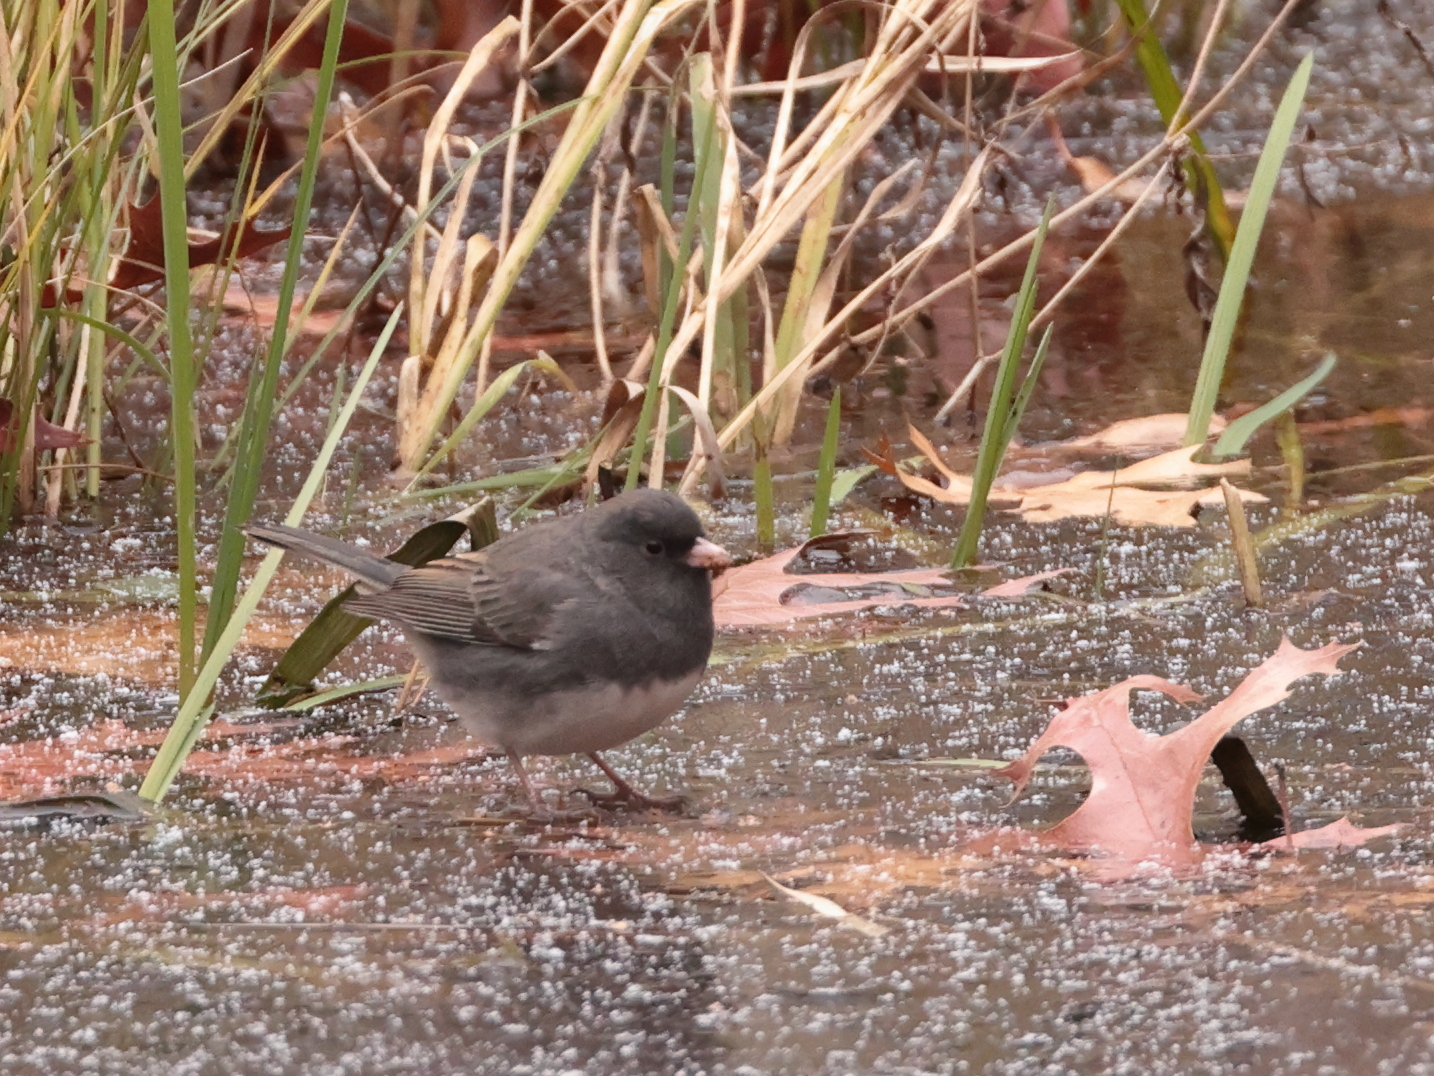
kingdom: Animalia
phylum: Chordata
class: Aves
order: Passeriformes
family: Passerellidae
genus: Junco
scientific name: Junco hyemalis
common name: Dark-eyed junco
